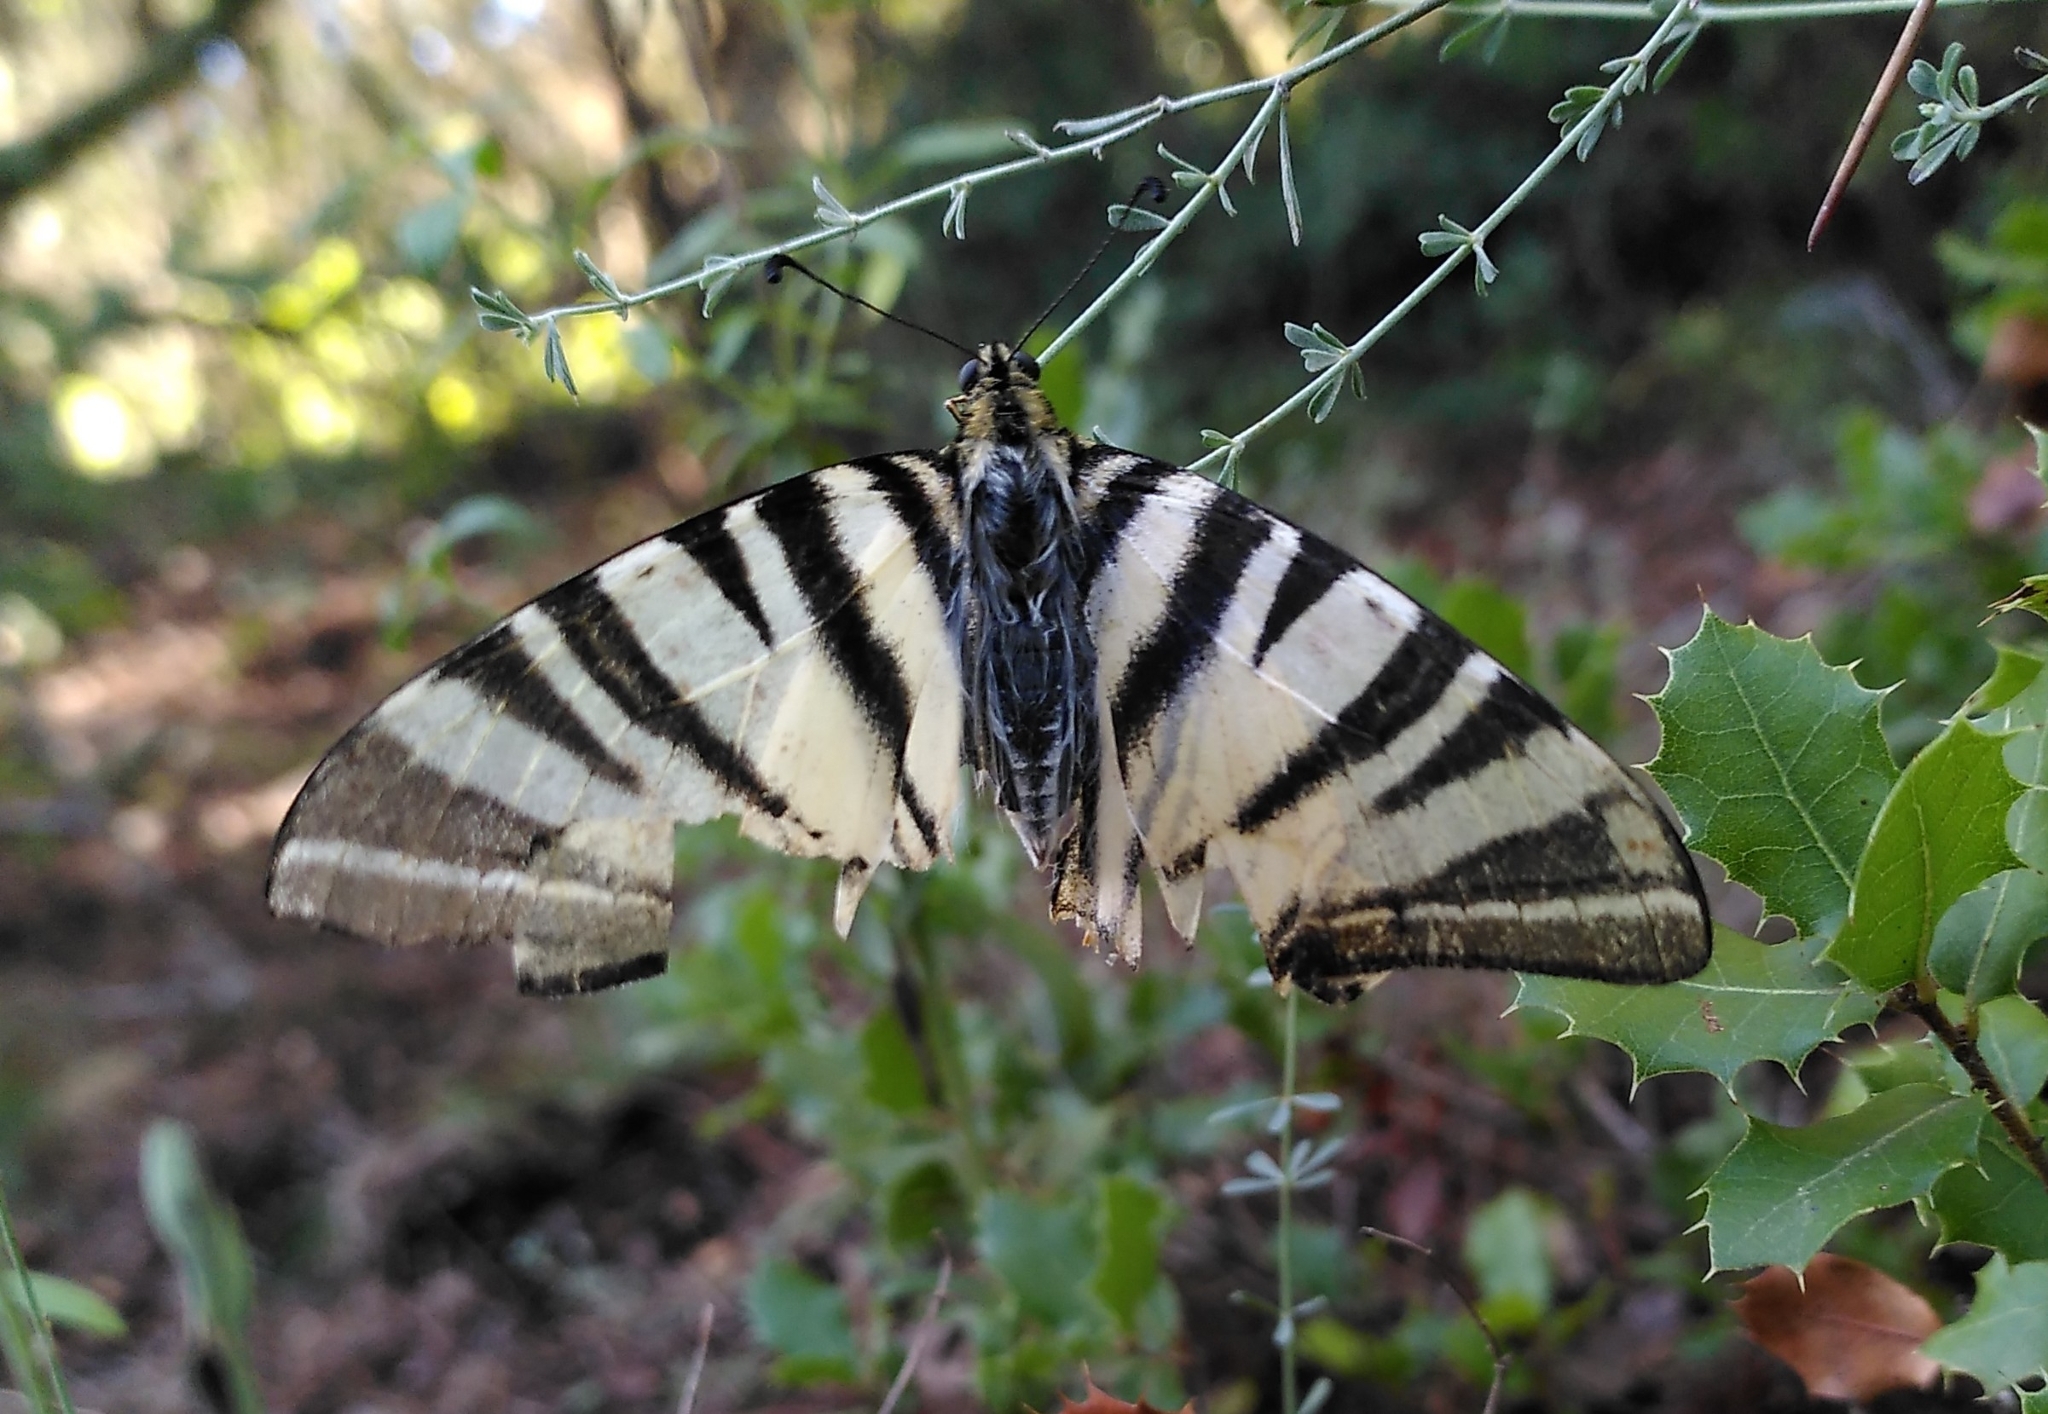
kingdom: Animalia
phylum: Arthropoda
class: Insecta
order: Lepidoptera
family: Papilionidae
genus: Iphiclides
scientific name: Iphiclides podalirius
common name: Scarce swallowtail
